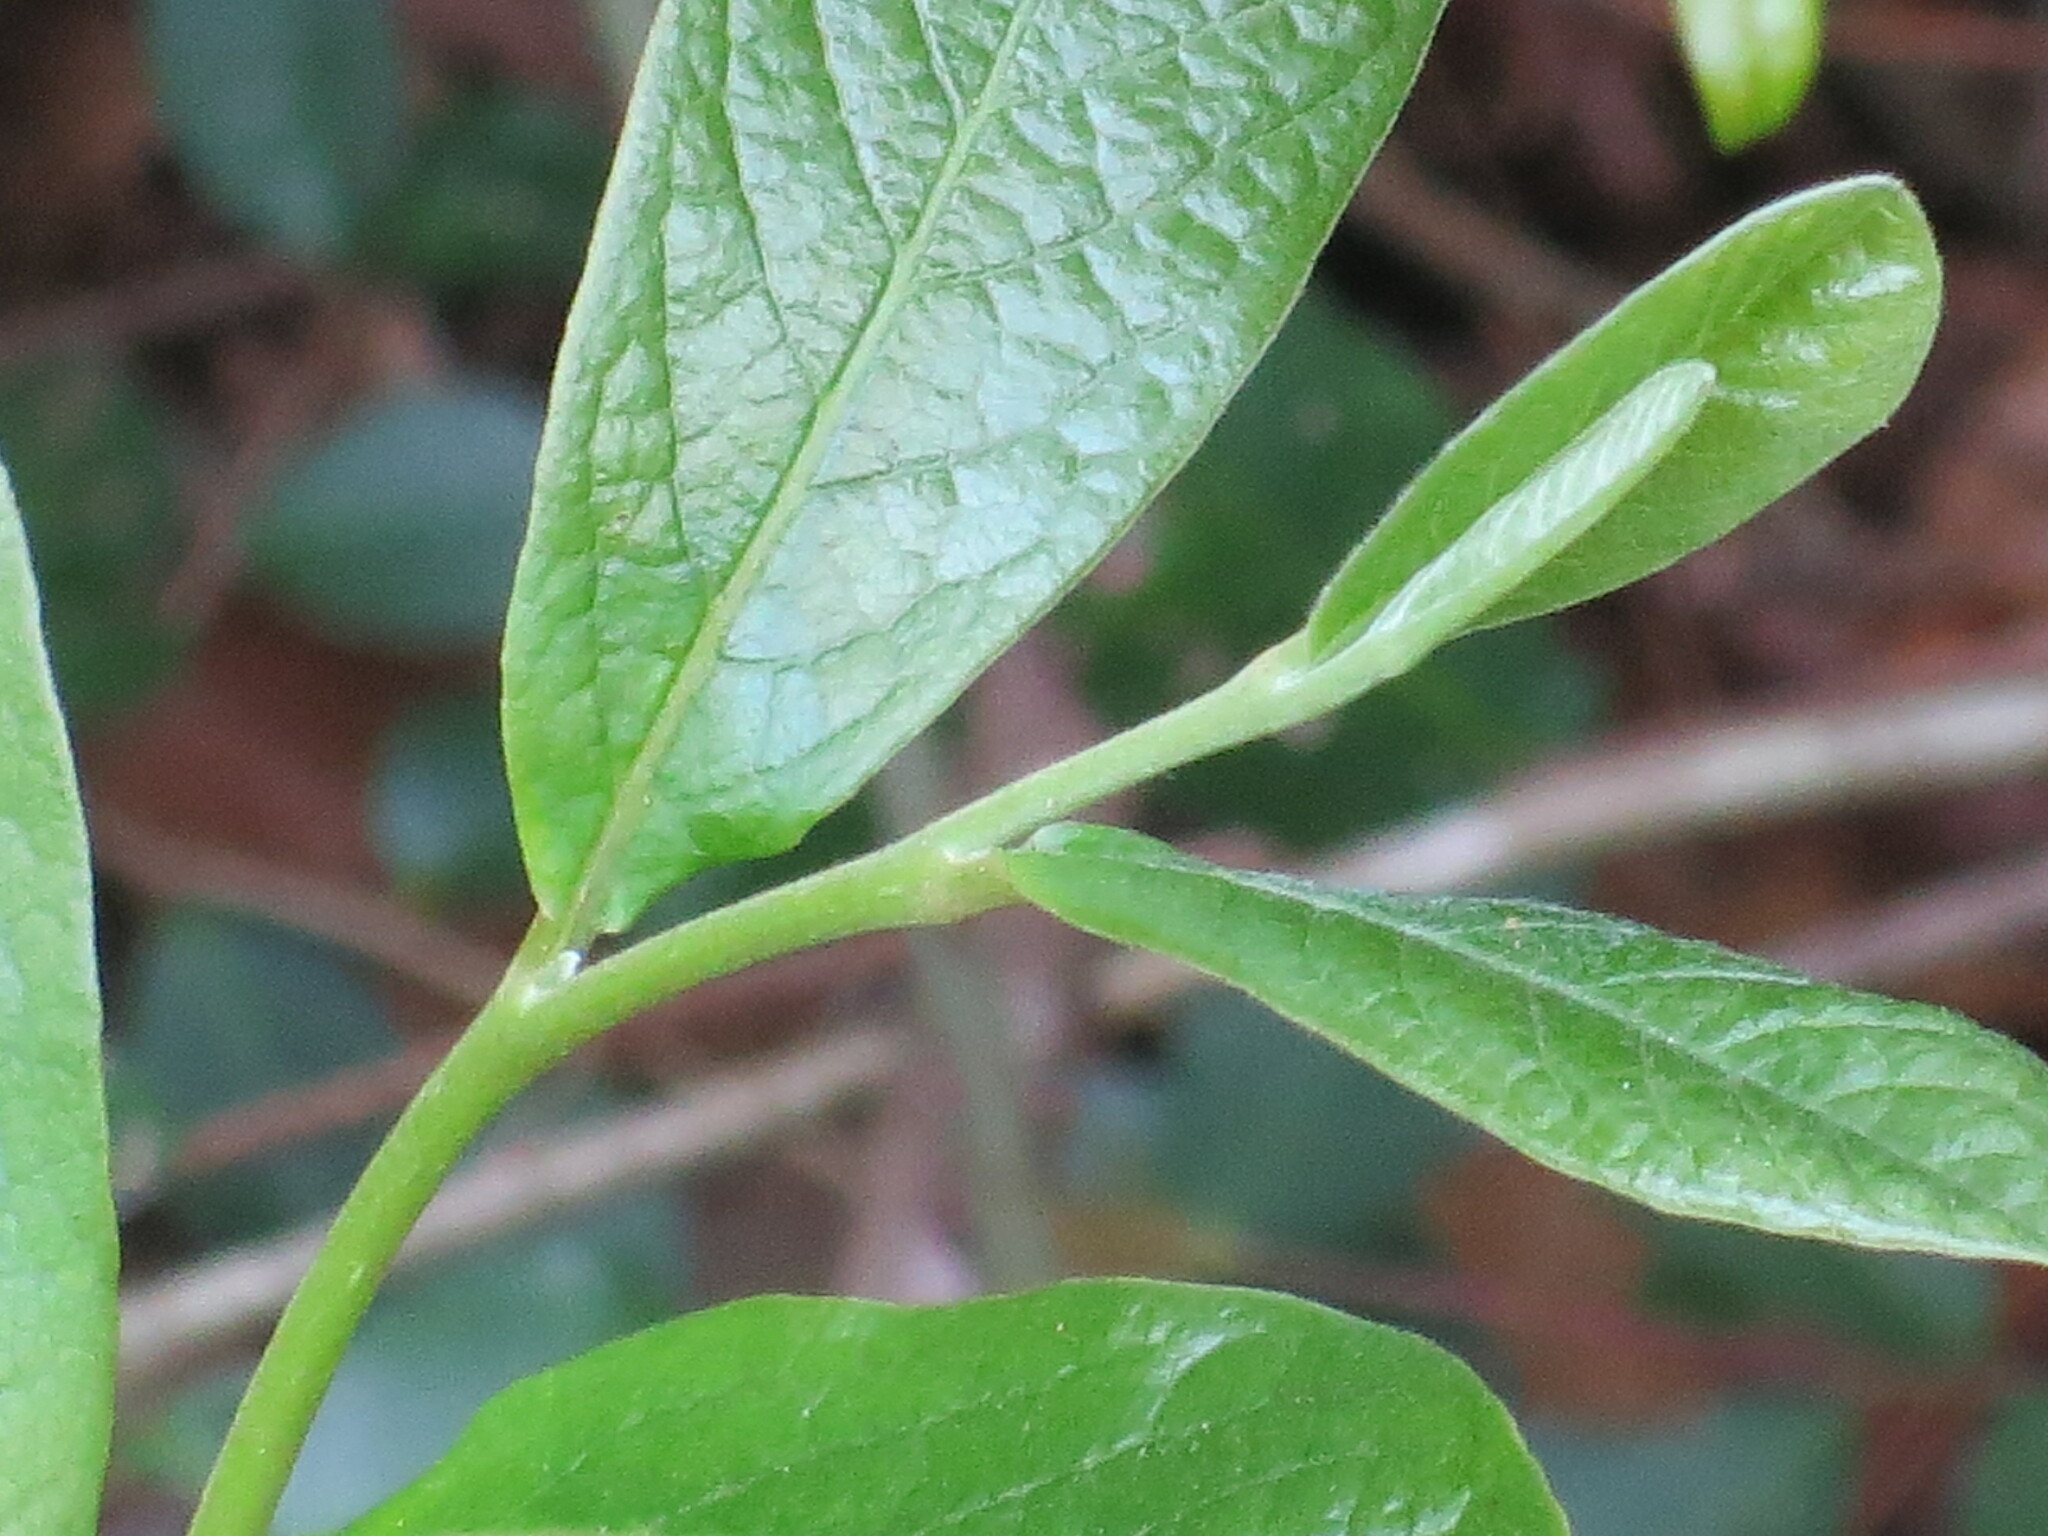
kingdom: Plantae
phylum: Tracheophyta
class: Magnoliopsida
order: Magnoliales
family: Annonaceae
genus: Asimina
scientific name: Asimina parviflora
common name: Dwarf pawpaw
